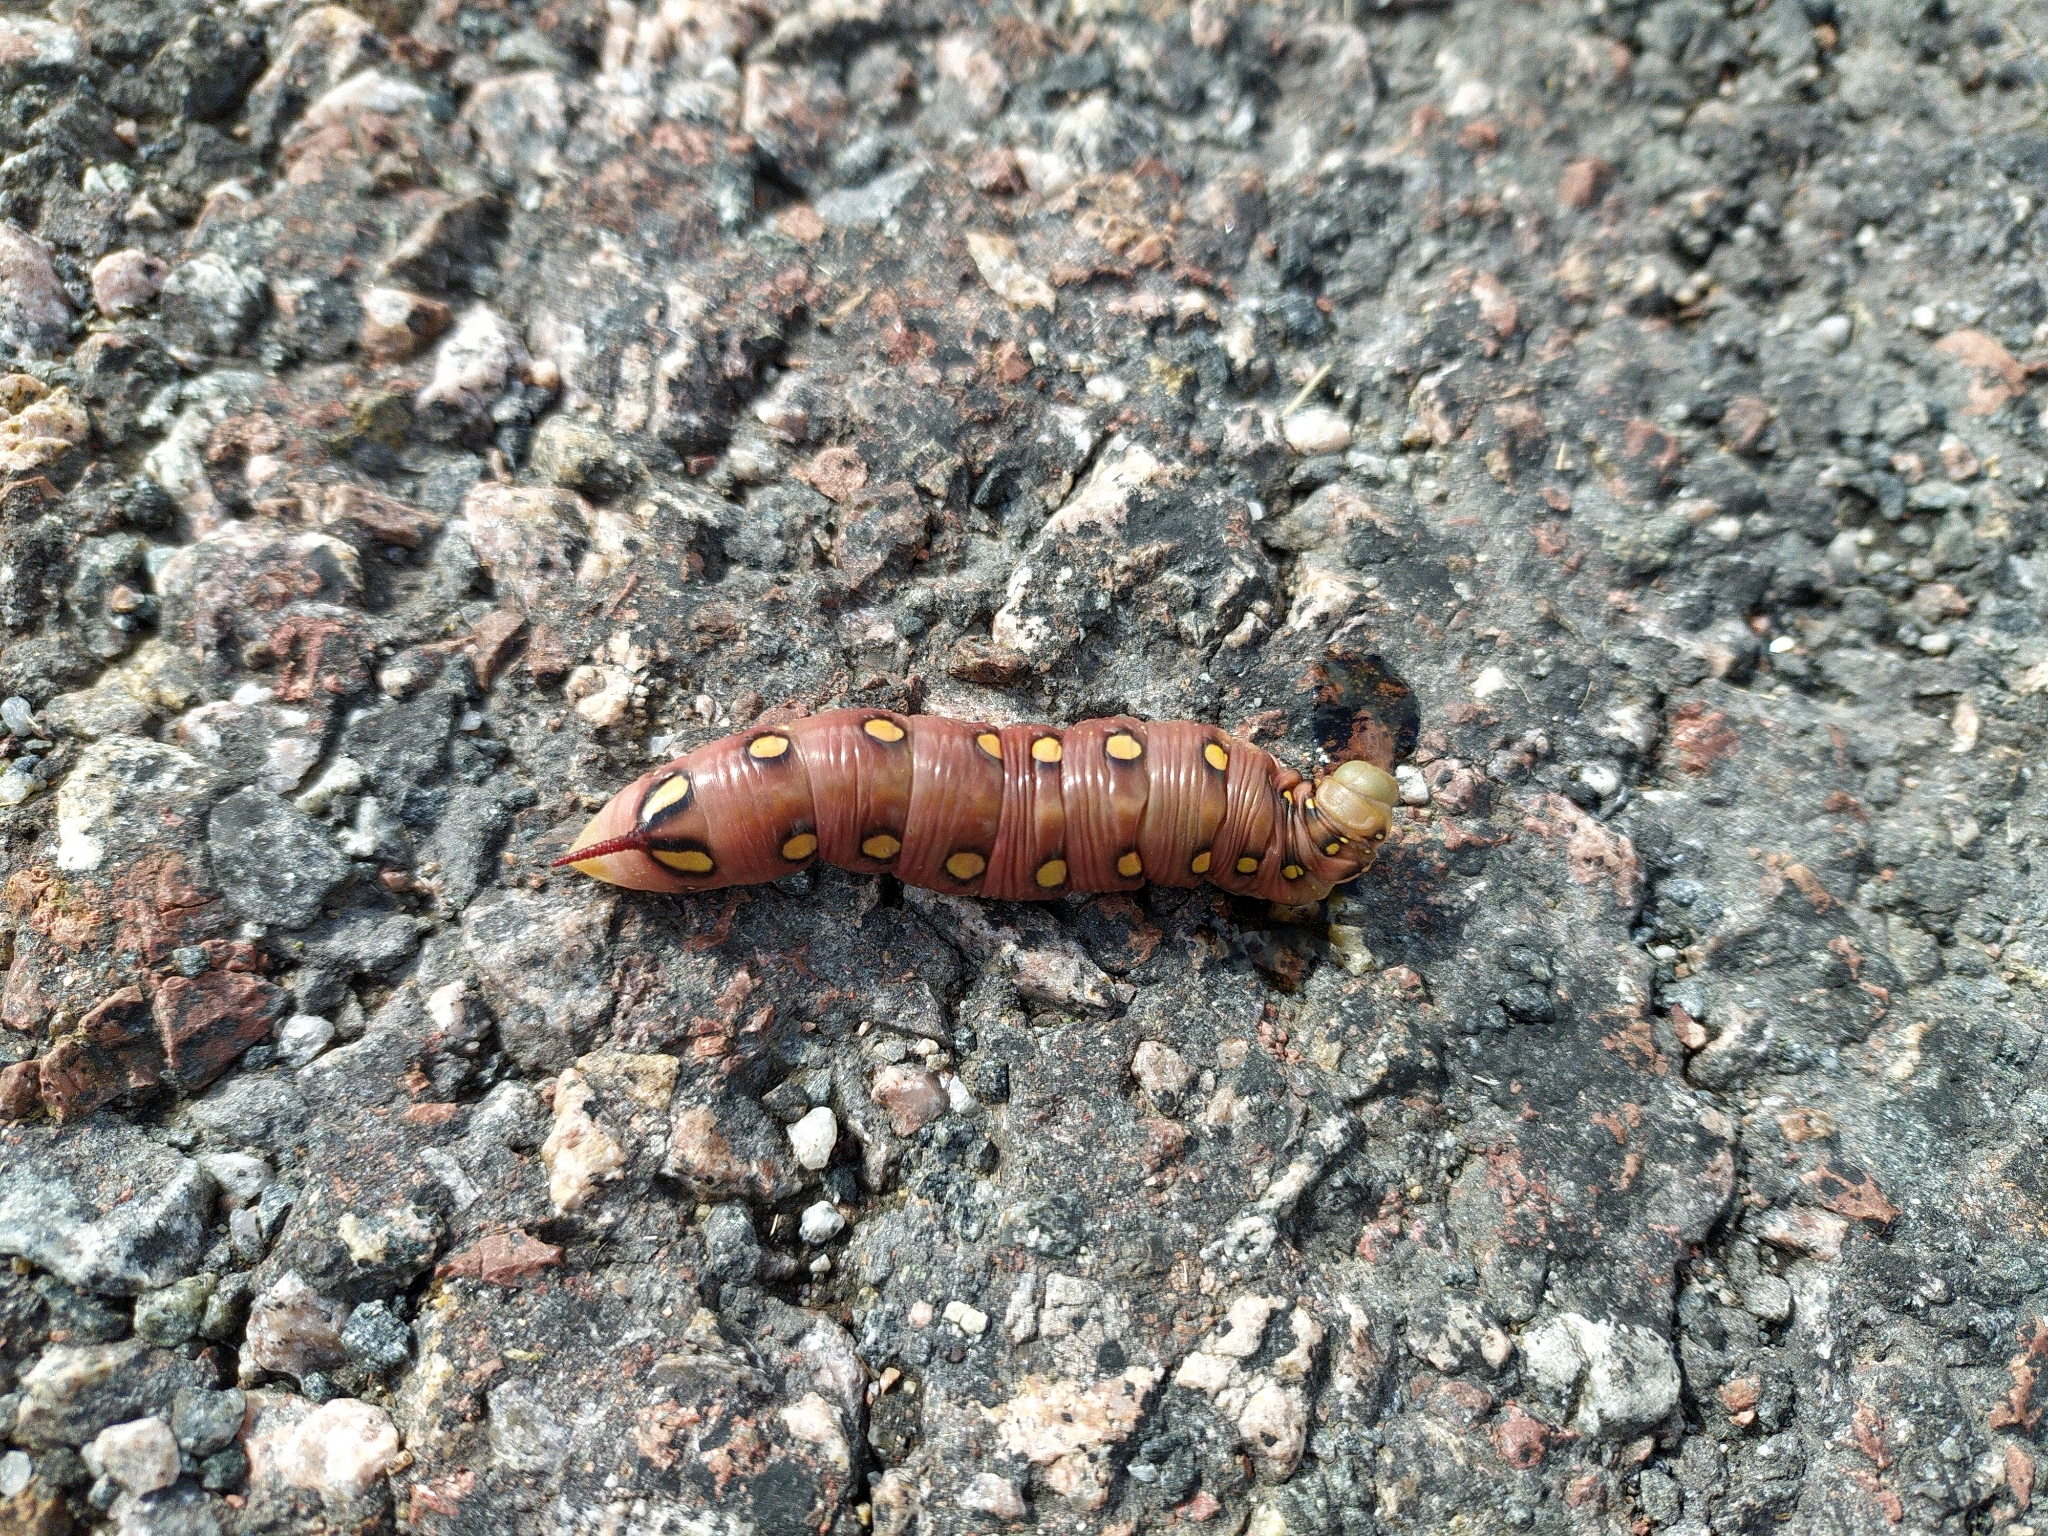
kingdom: Animalia
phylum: Arthropoda
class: Insecta
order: Lepidoptera
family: Sphingidae
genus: Hyles
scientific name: Hyles gallii
